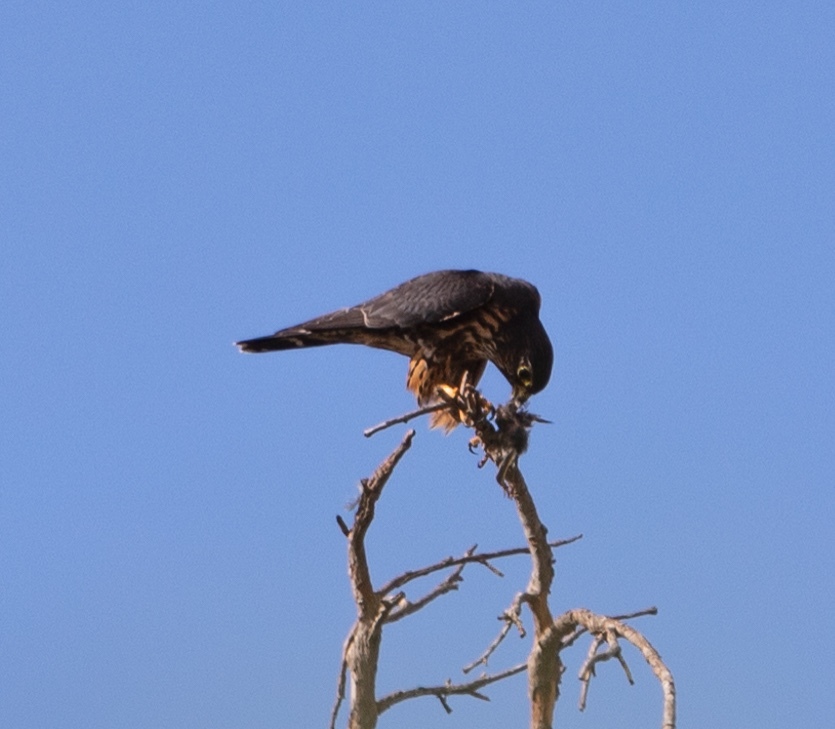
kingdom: Animalia
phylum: Chordata
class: Aves
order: Falconiformes
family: Falconidae
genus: Falco
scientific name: Falco columbarius
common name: Merlin
